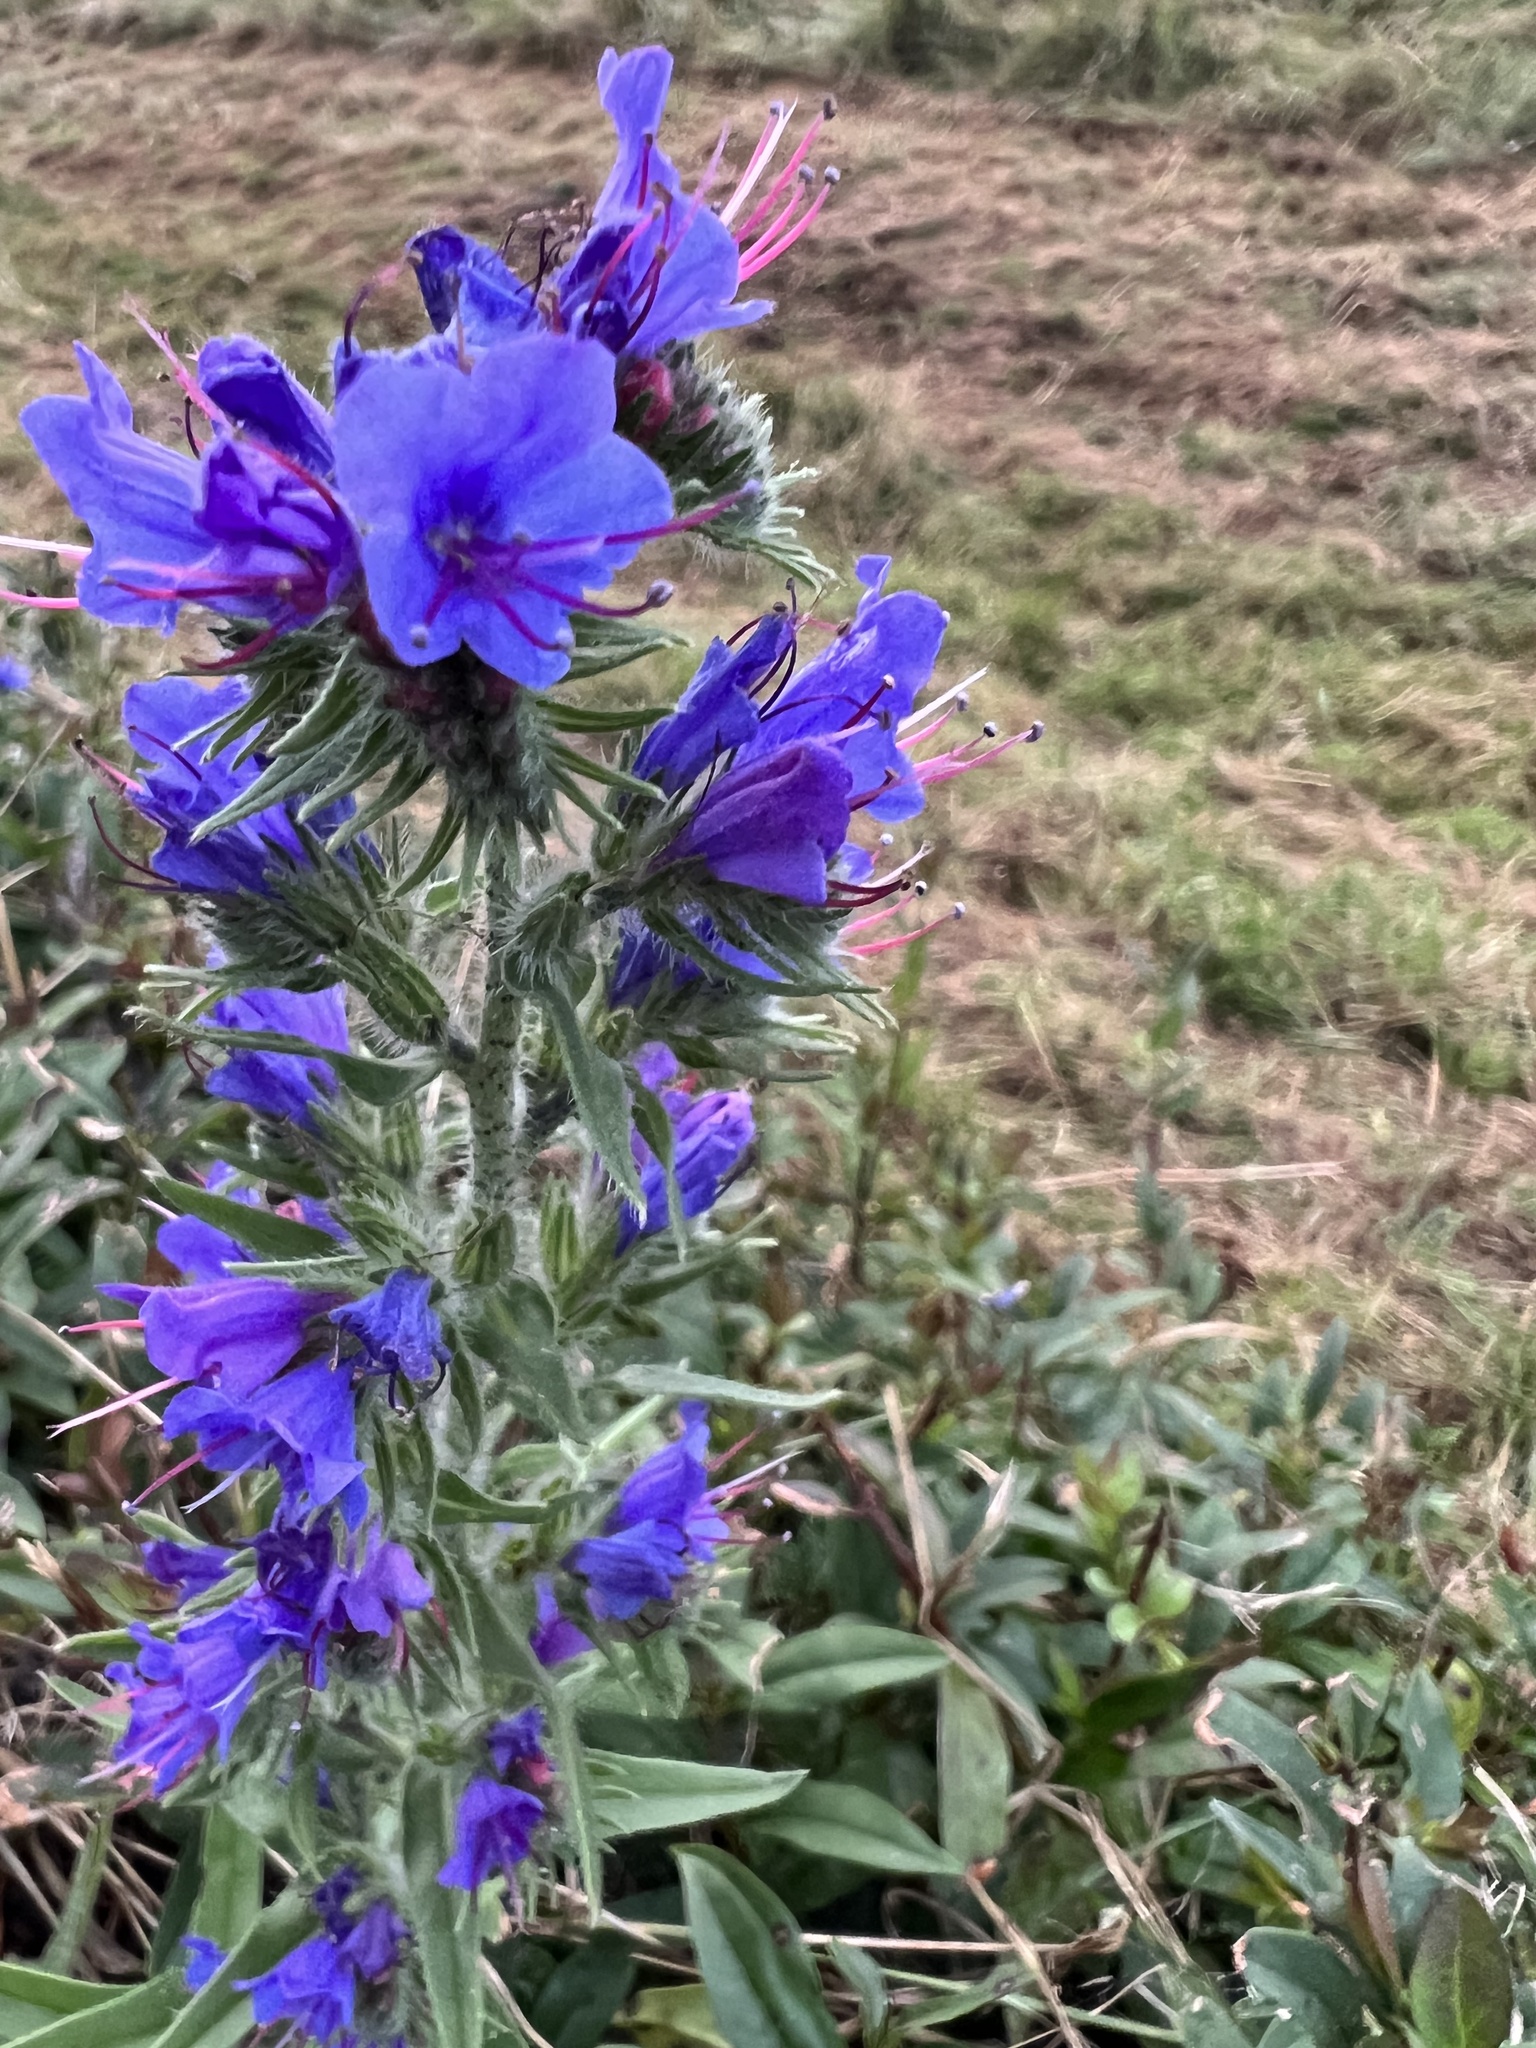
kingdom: Plantae
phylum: Tracheophyta
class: Magnoliopsida
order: Boraginales
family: Boraginaceae
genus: Echium
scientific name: Echium vulgare
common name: Common viper's bugloss
